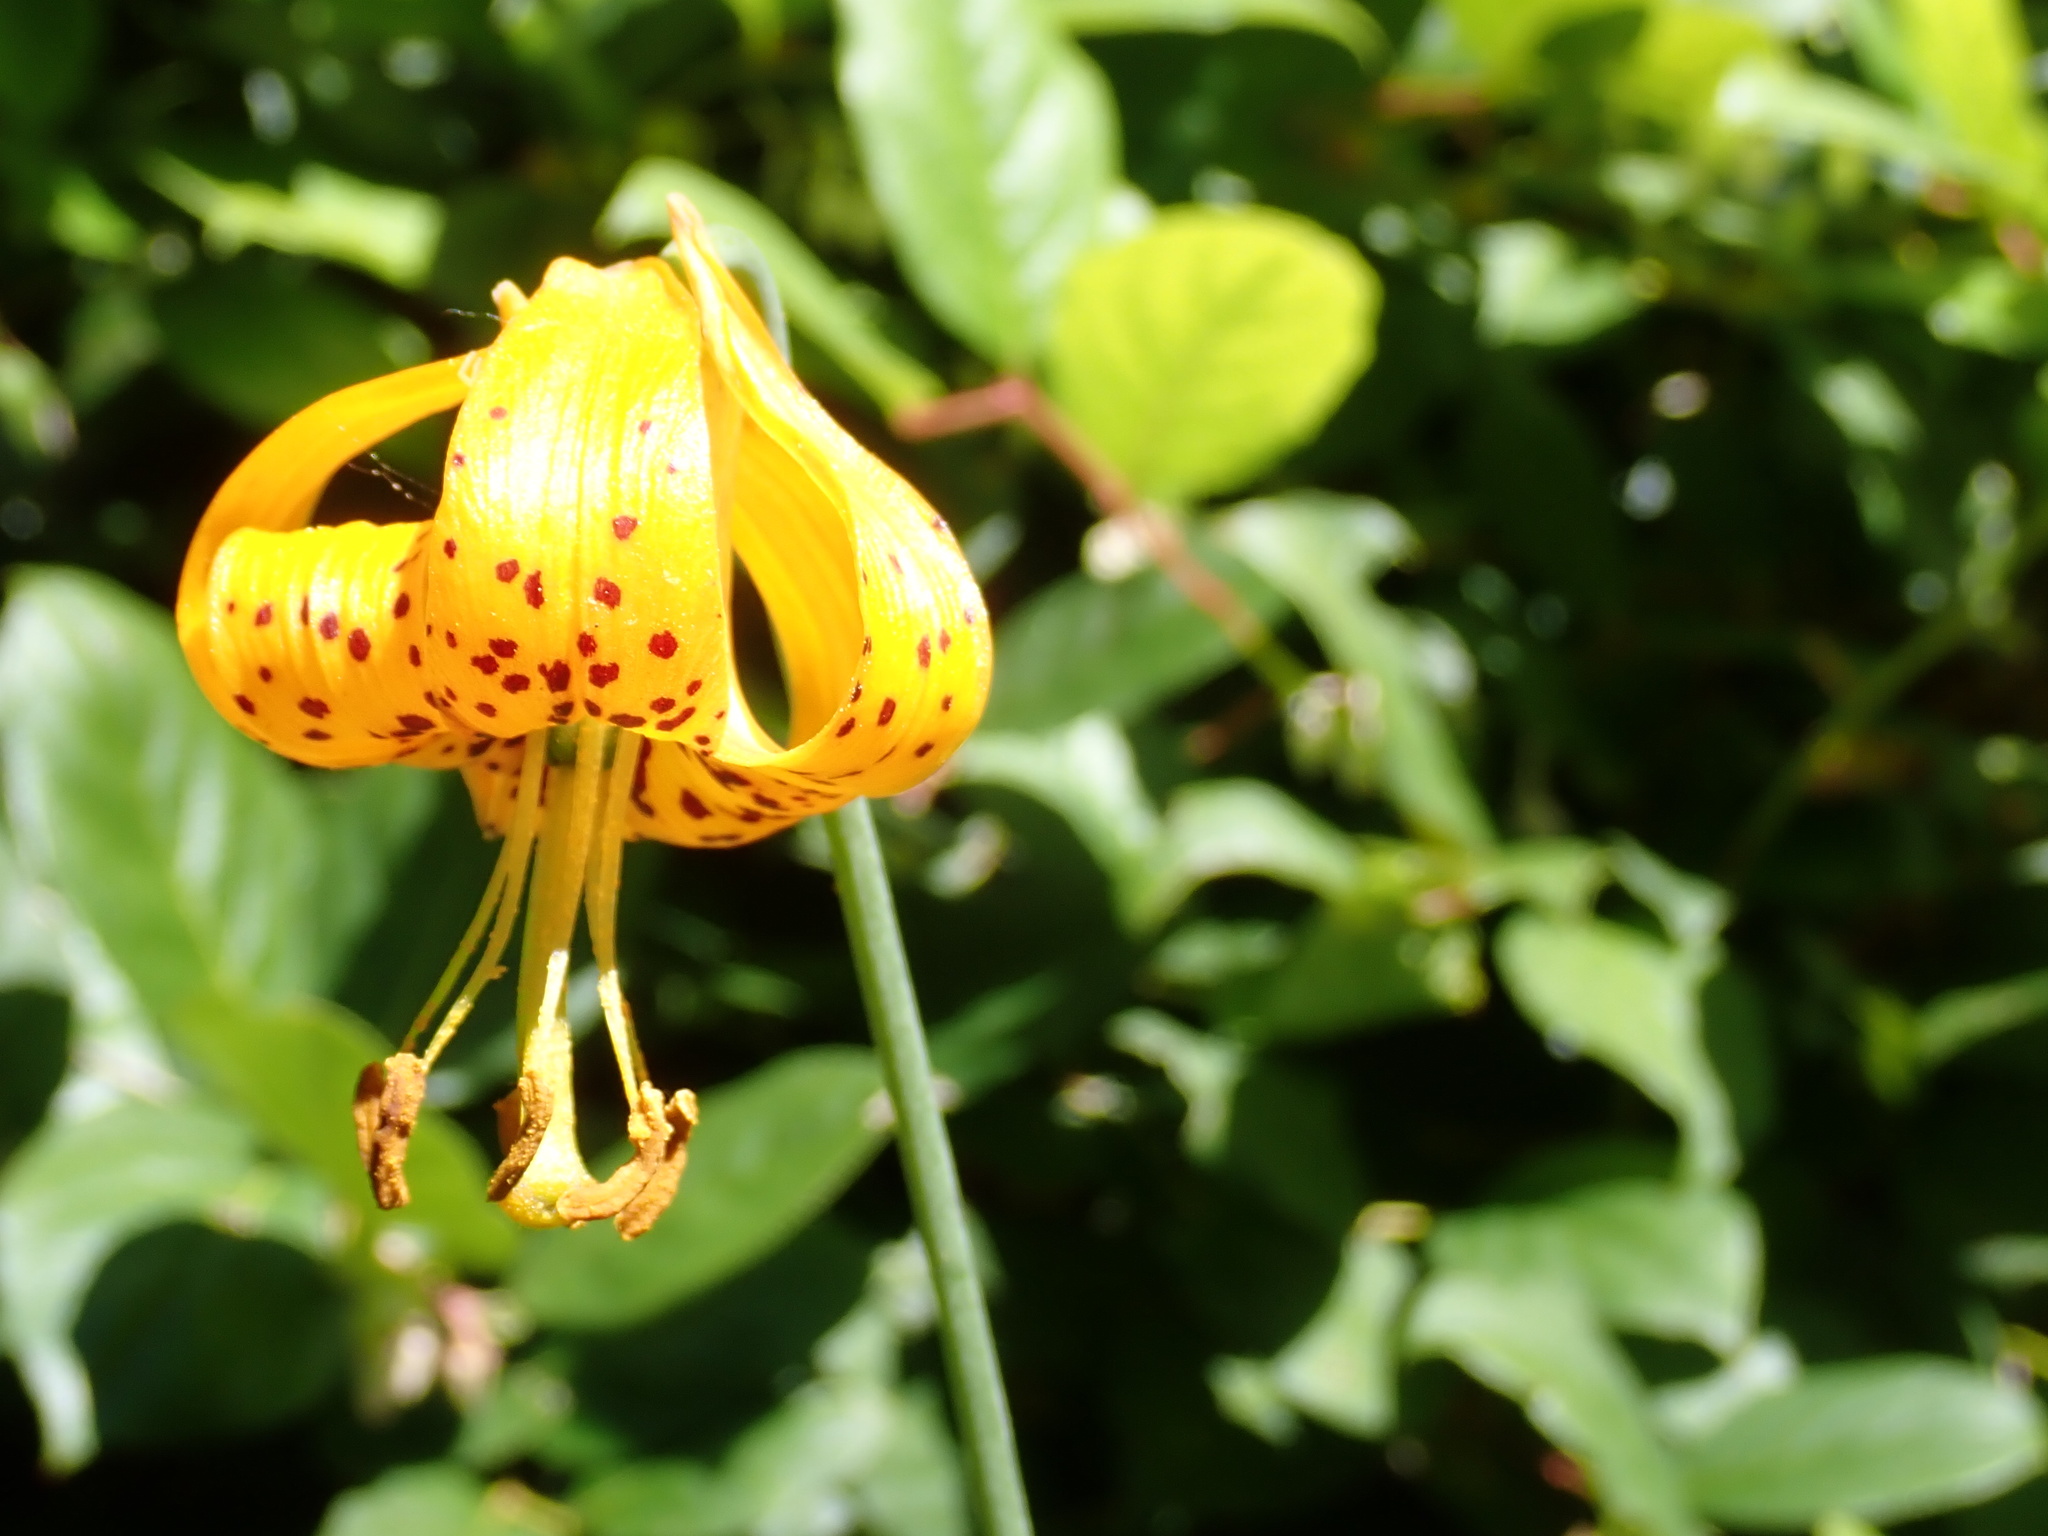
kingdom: Plantae
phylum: Tracheophyta
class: Liliopsida
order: Liliales
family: Liliaceae
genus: Lilium
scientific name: Lilium columbianum
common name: Columbia lily
